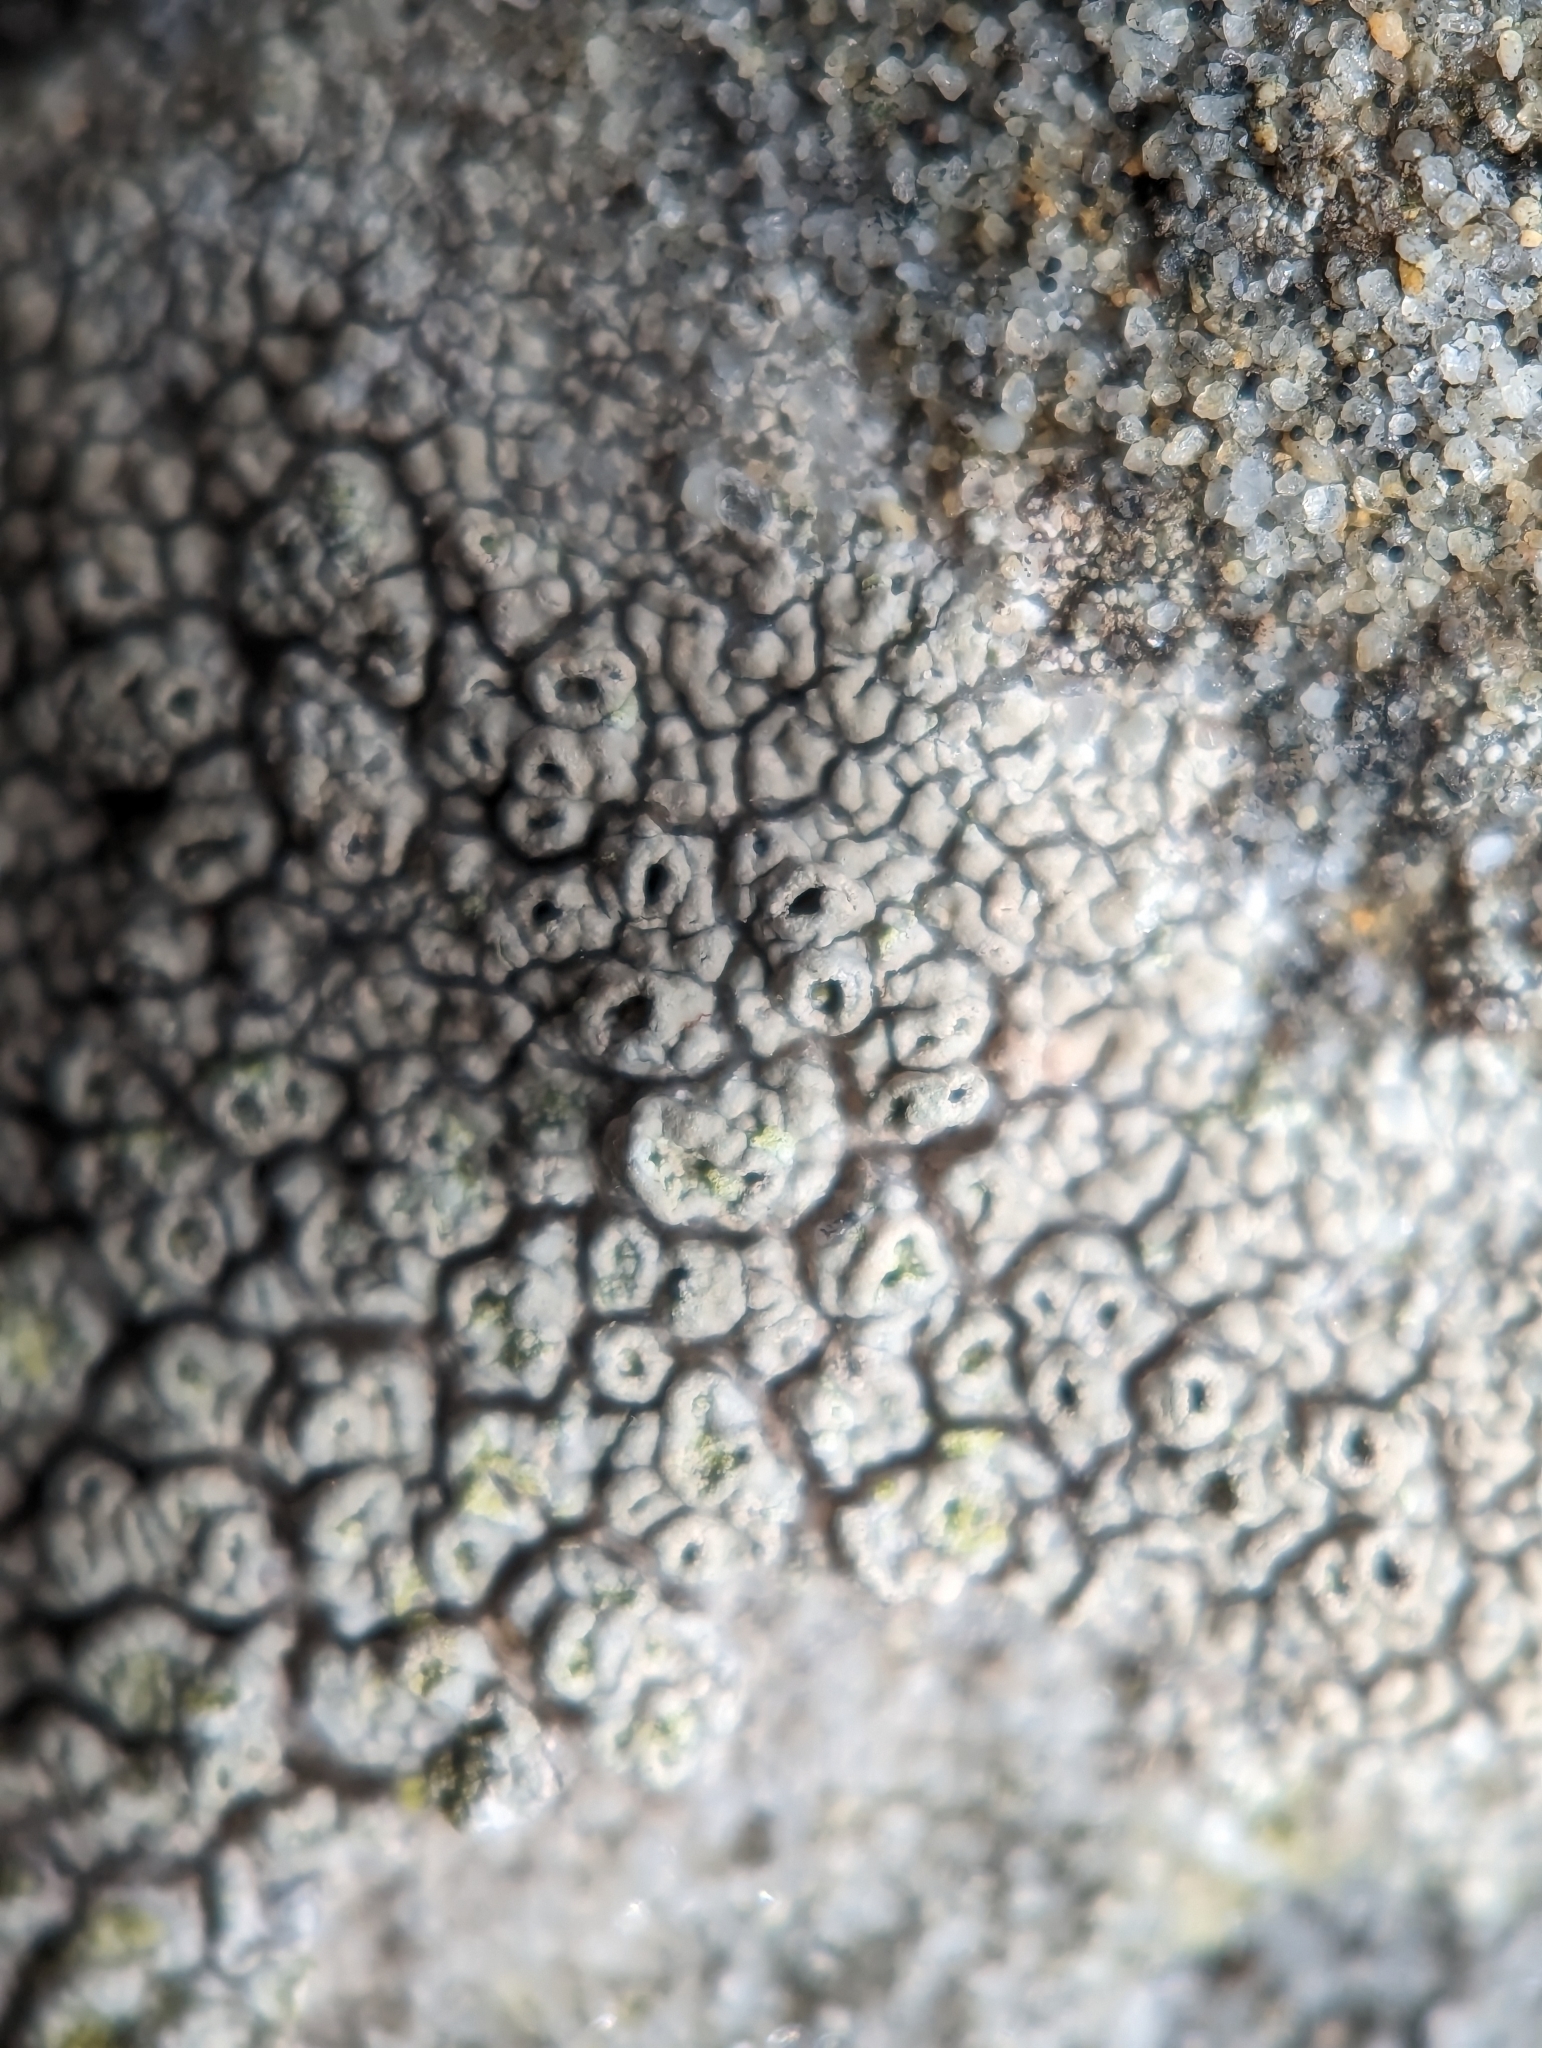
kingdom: Fungi
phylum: Ascomycota
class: Lecanoromycetes
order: Ostropales
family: Graphidaceae
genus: Diploschistes
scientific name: Diploschistes scruposus
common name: Crater lichen
